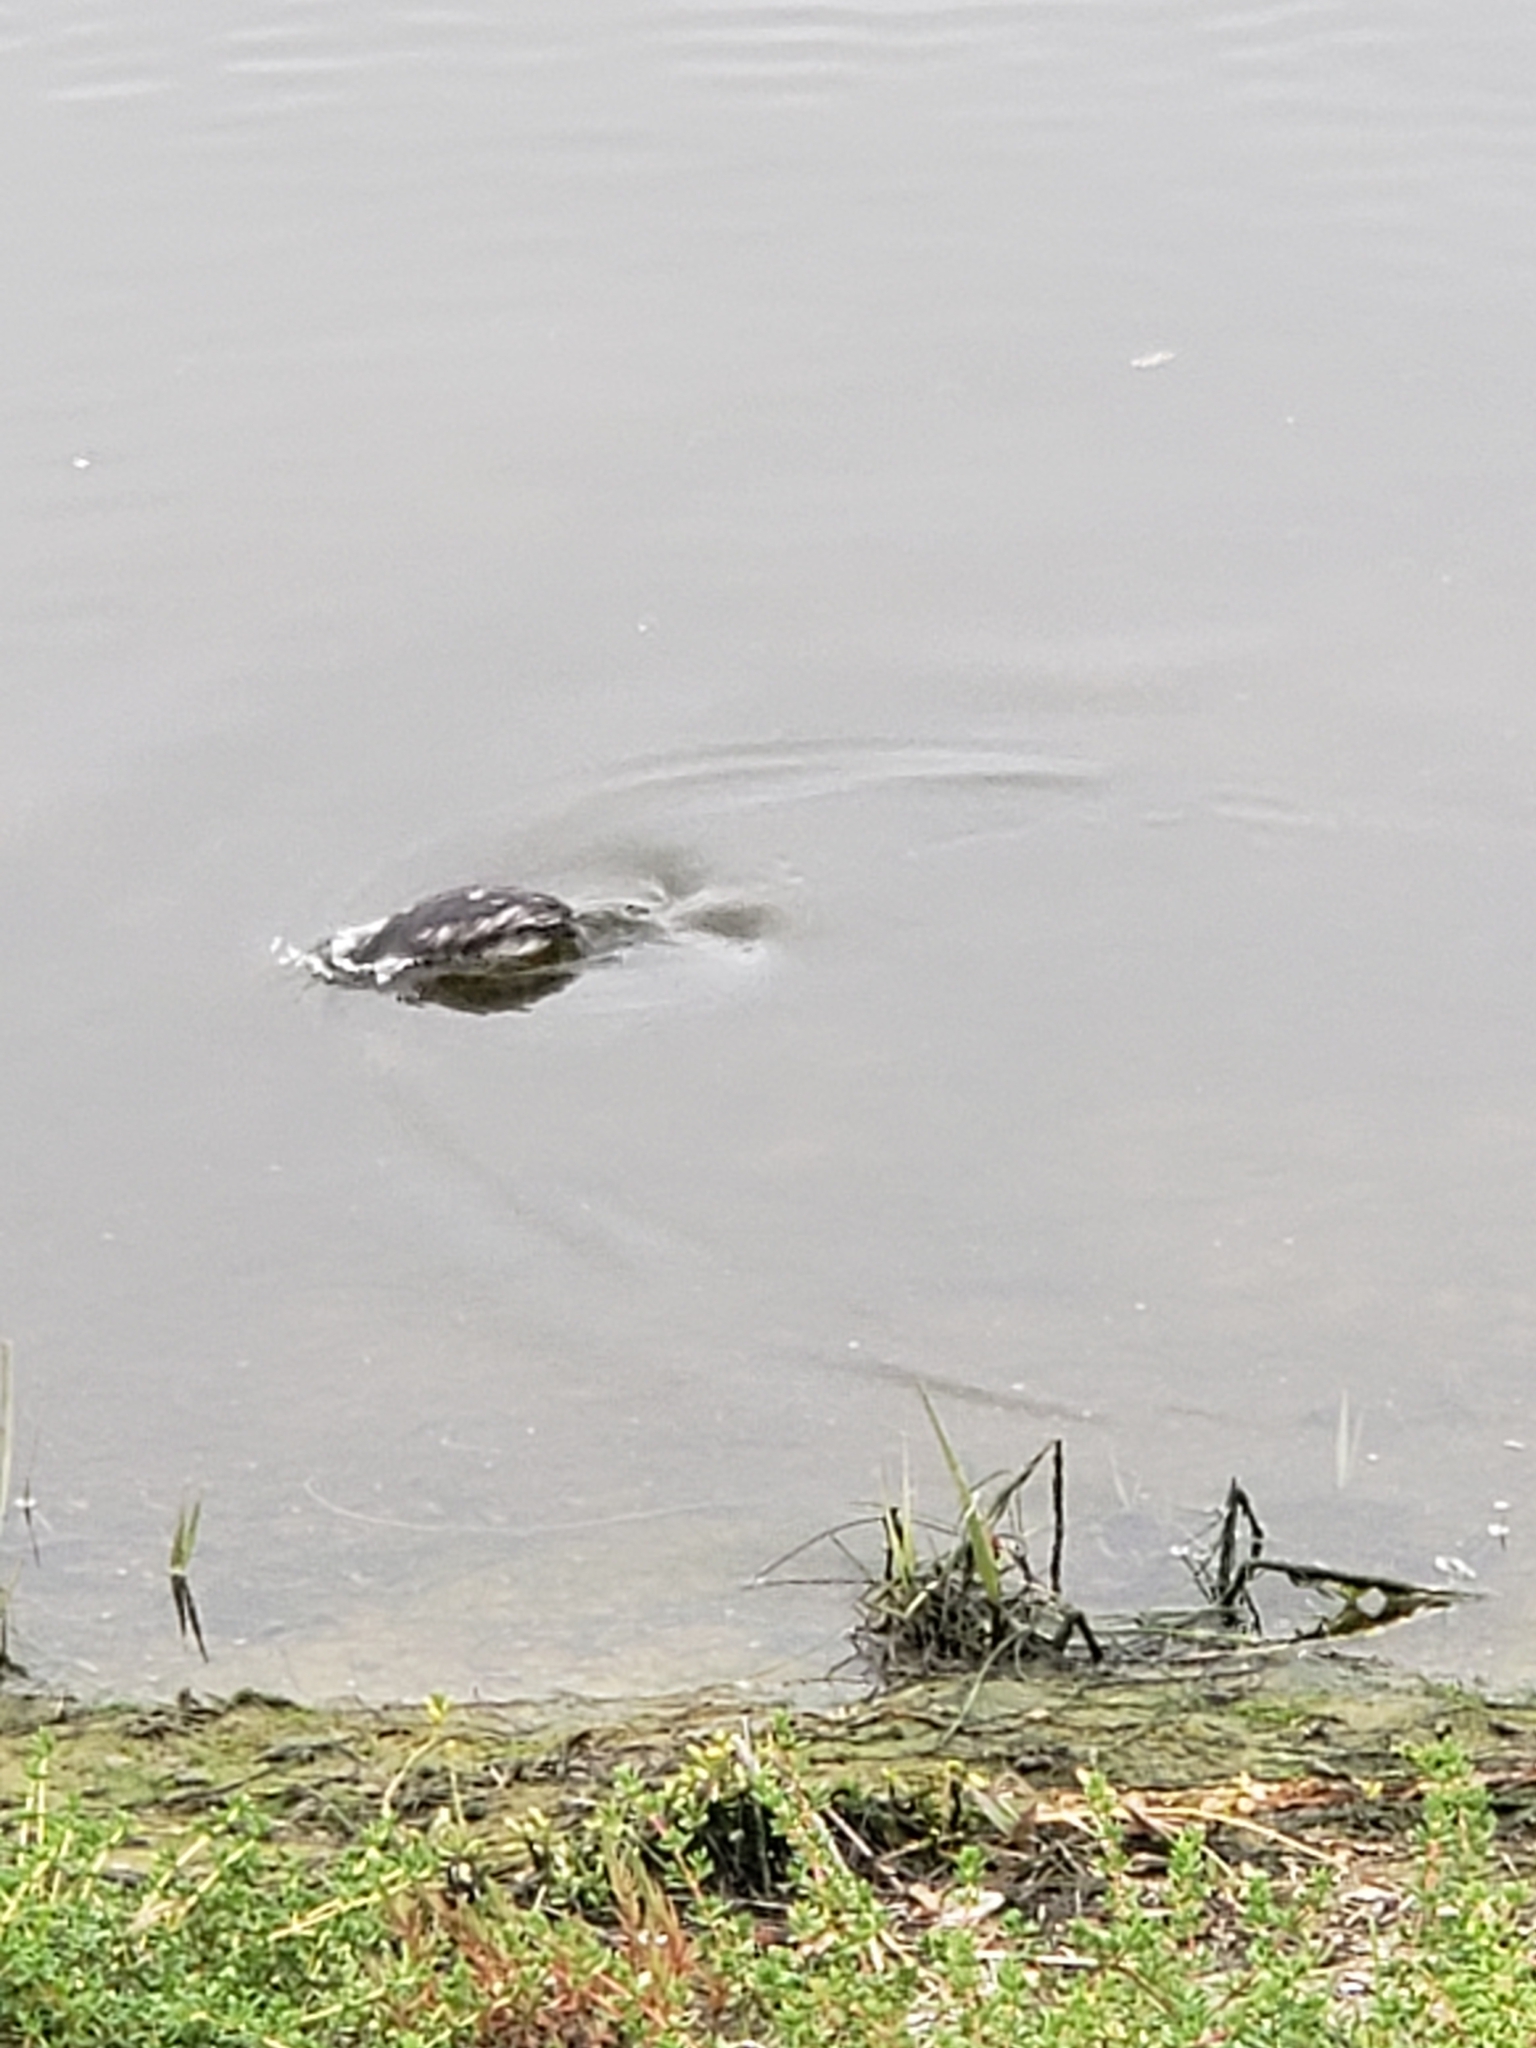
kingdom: Animalia
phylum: Chordata
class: Aves
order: Podicipediformes
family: Podicipedidae
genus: Podiceps
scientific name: Podiceps nigricollis
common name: Black-necked grebe
